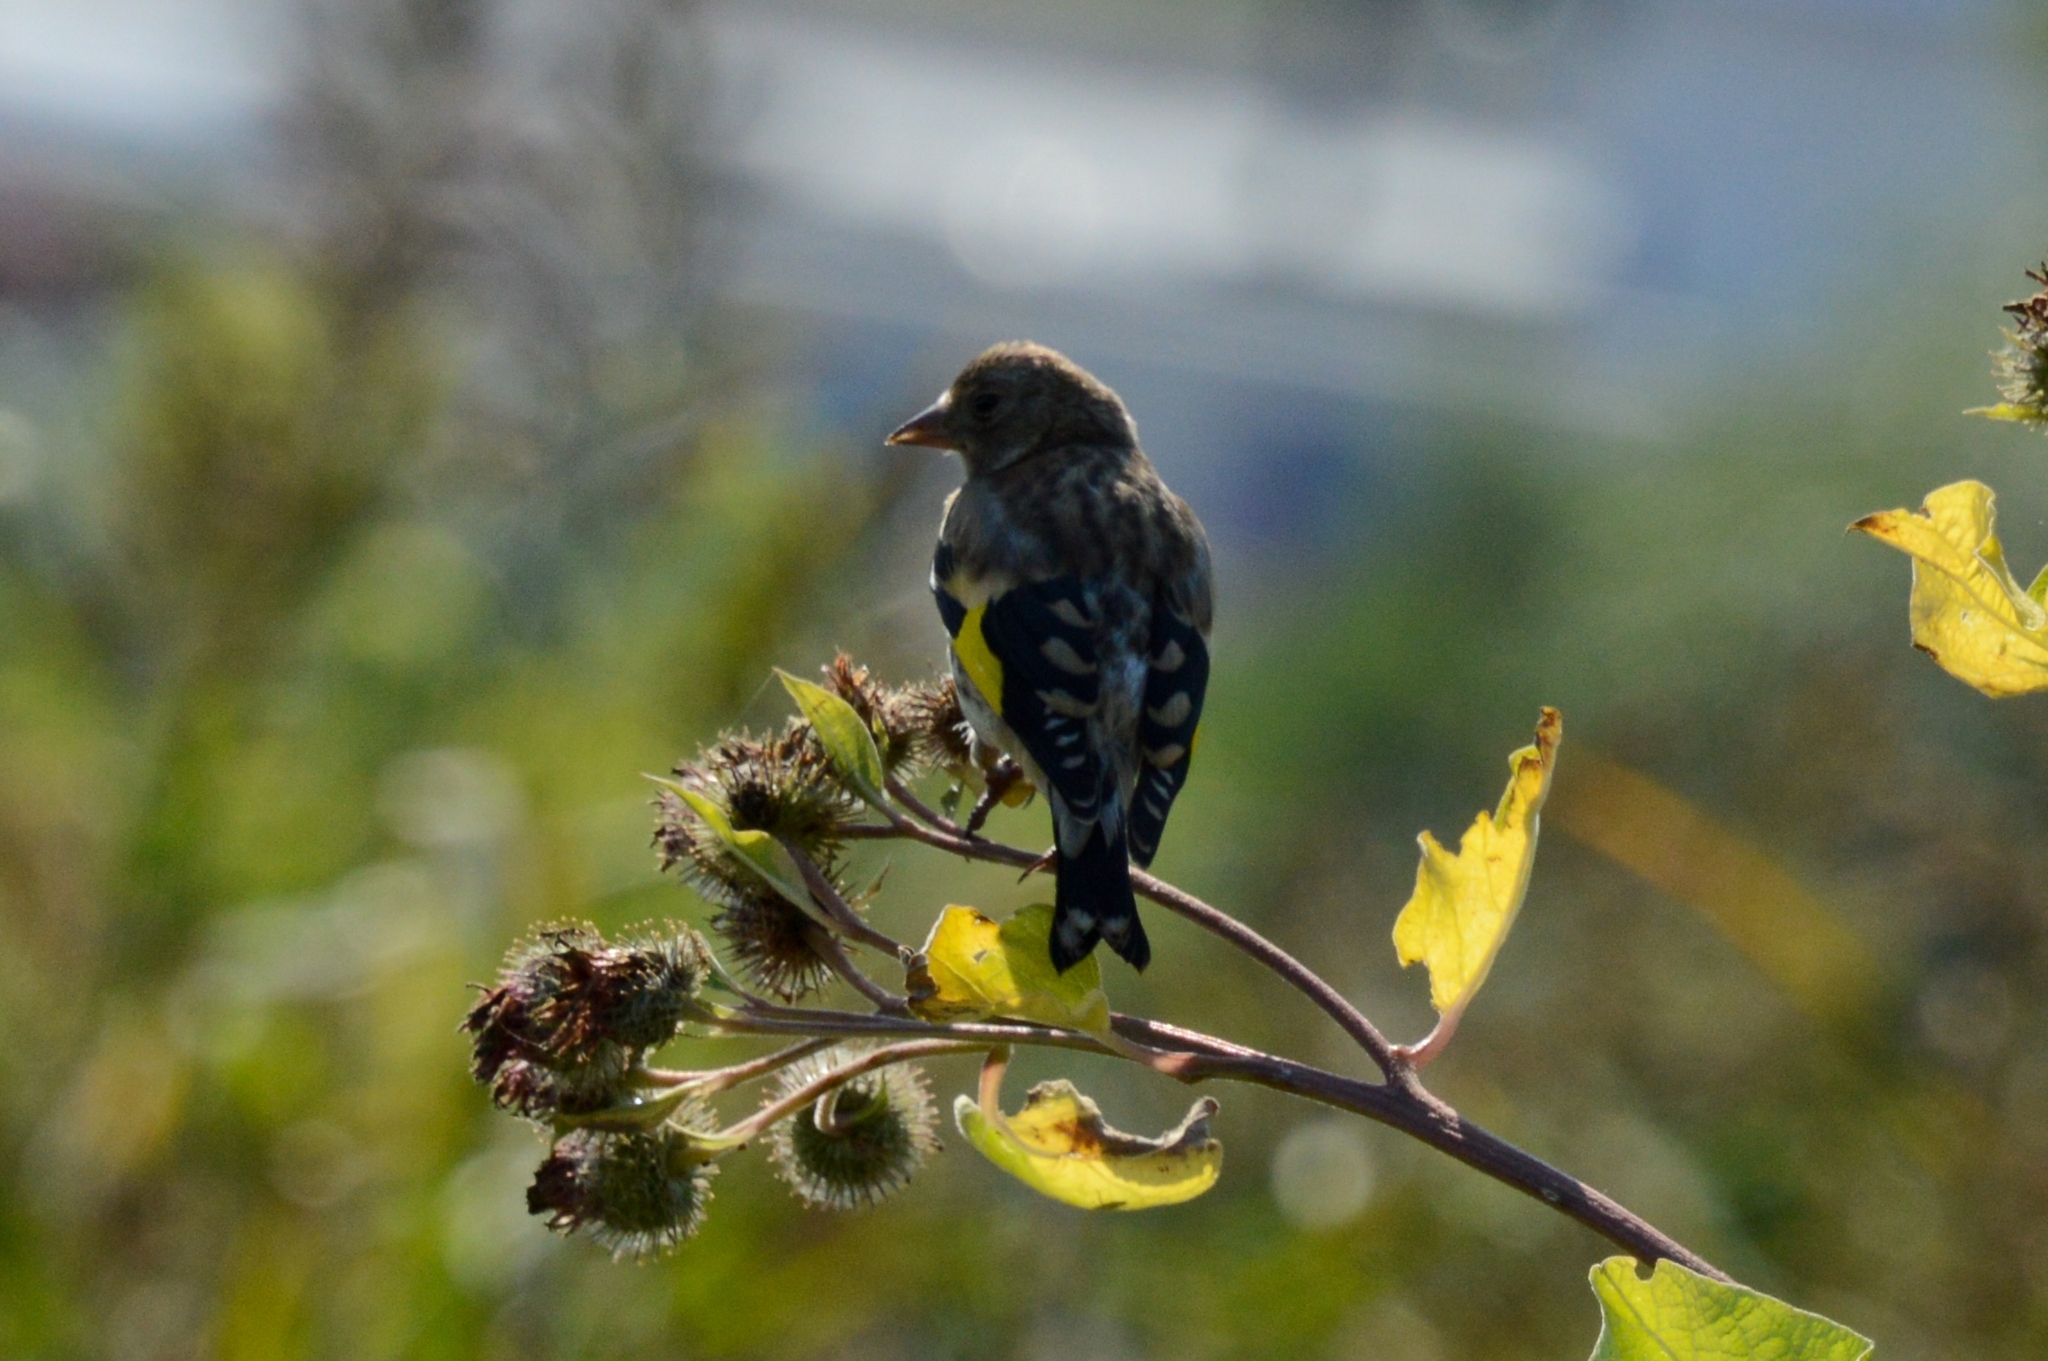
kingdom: Animalia
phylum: Chordata
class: Aves
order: Passeriformes
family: Fringillidae
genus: Carduelis
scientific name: Carduelis carduelis
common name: European goldfinch
